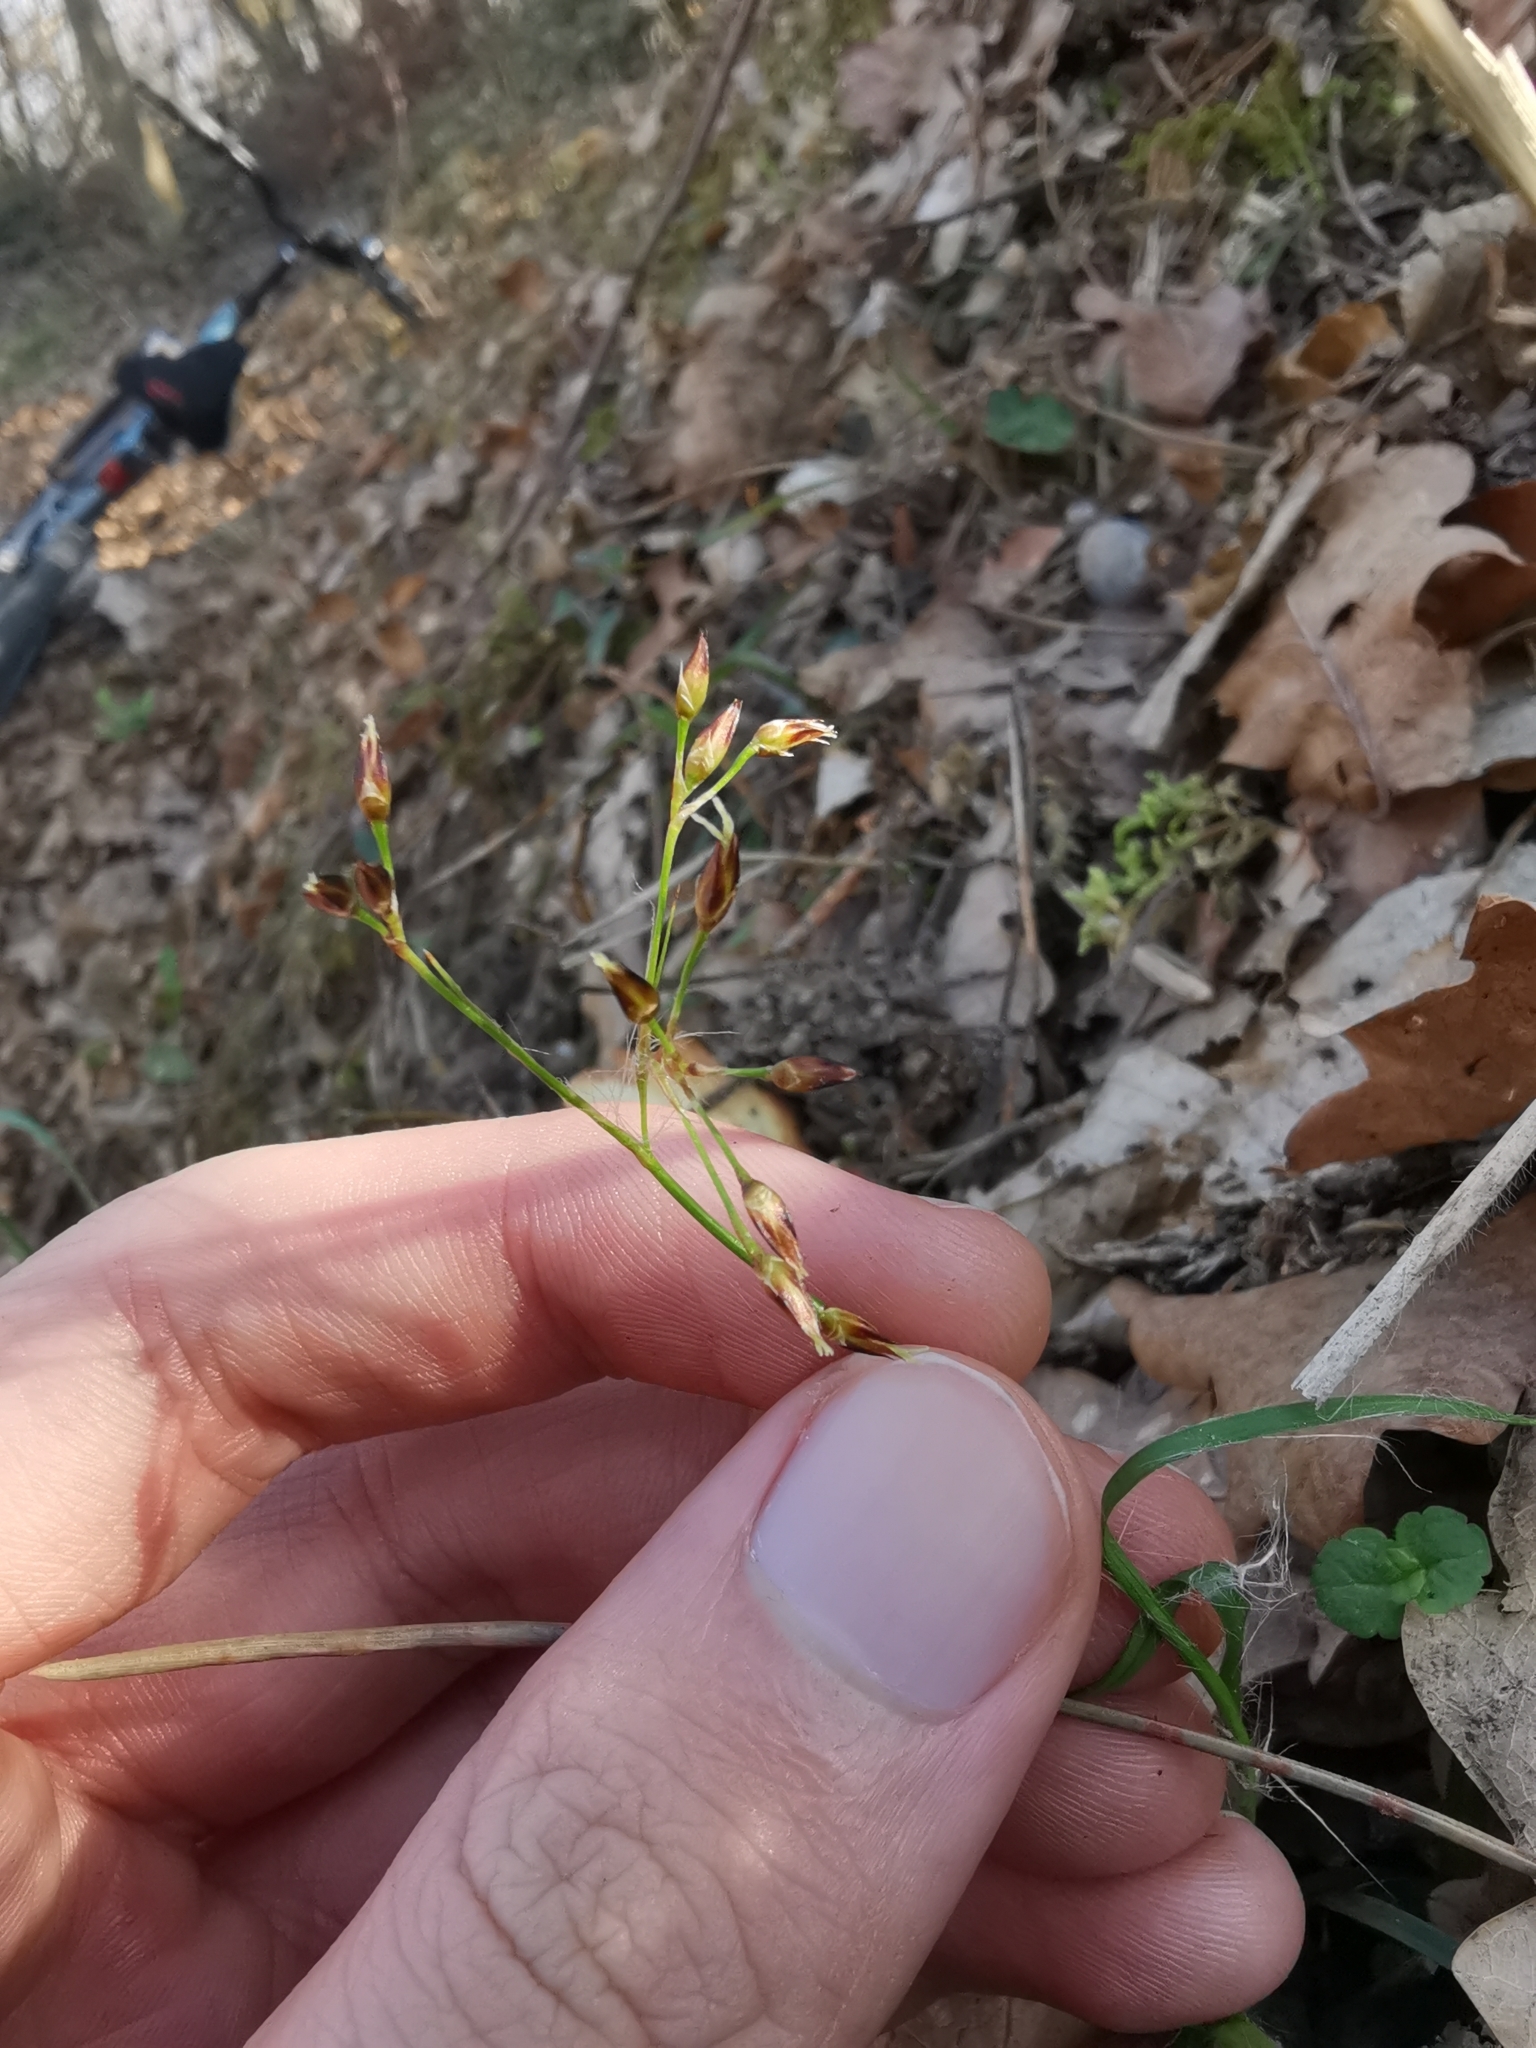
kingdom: Plantae
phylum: Tracheophyta
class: Liliopsida
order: Poales
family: Juncaceae
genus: Luzula
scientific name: Luzula pilosa
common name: Hairy wood-rush
